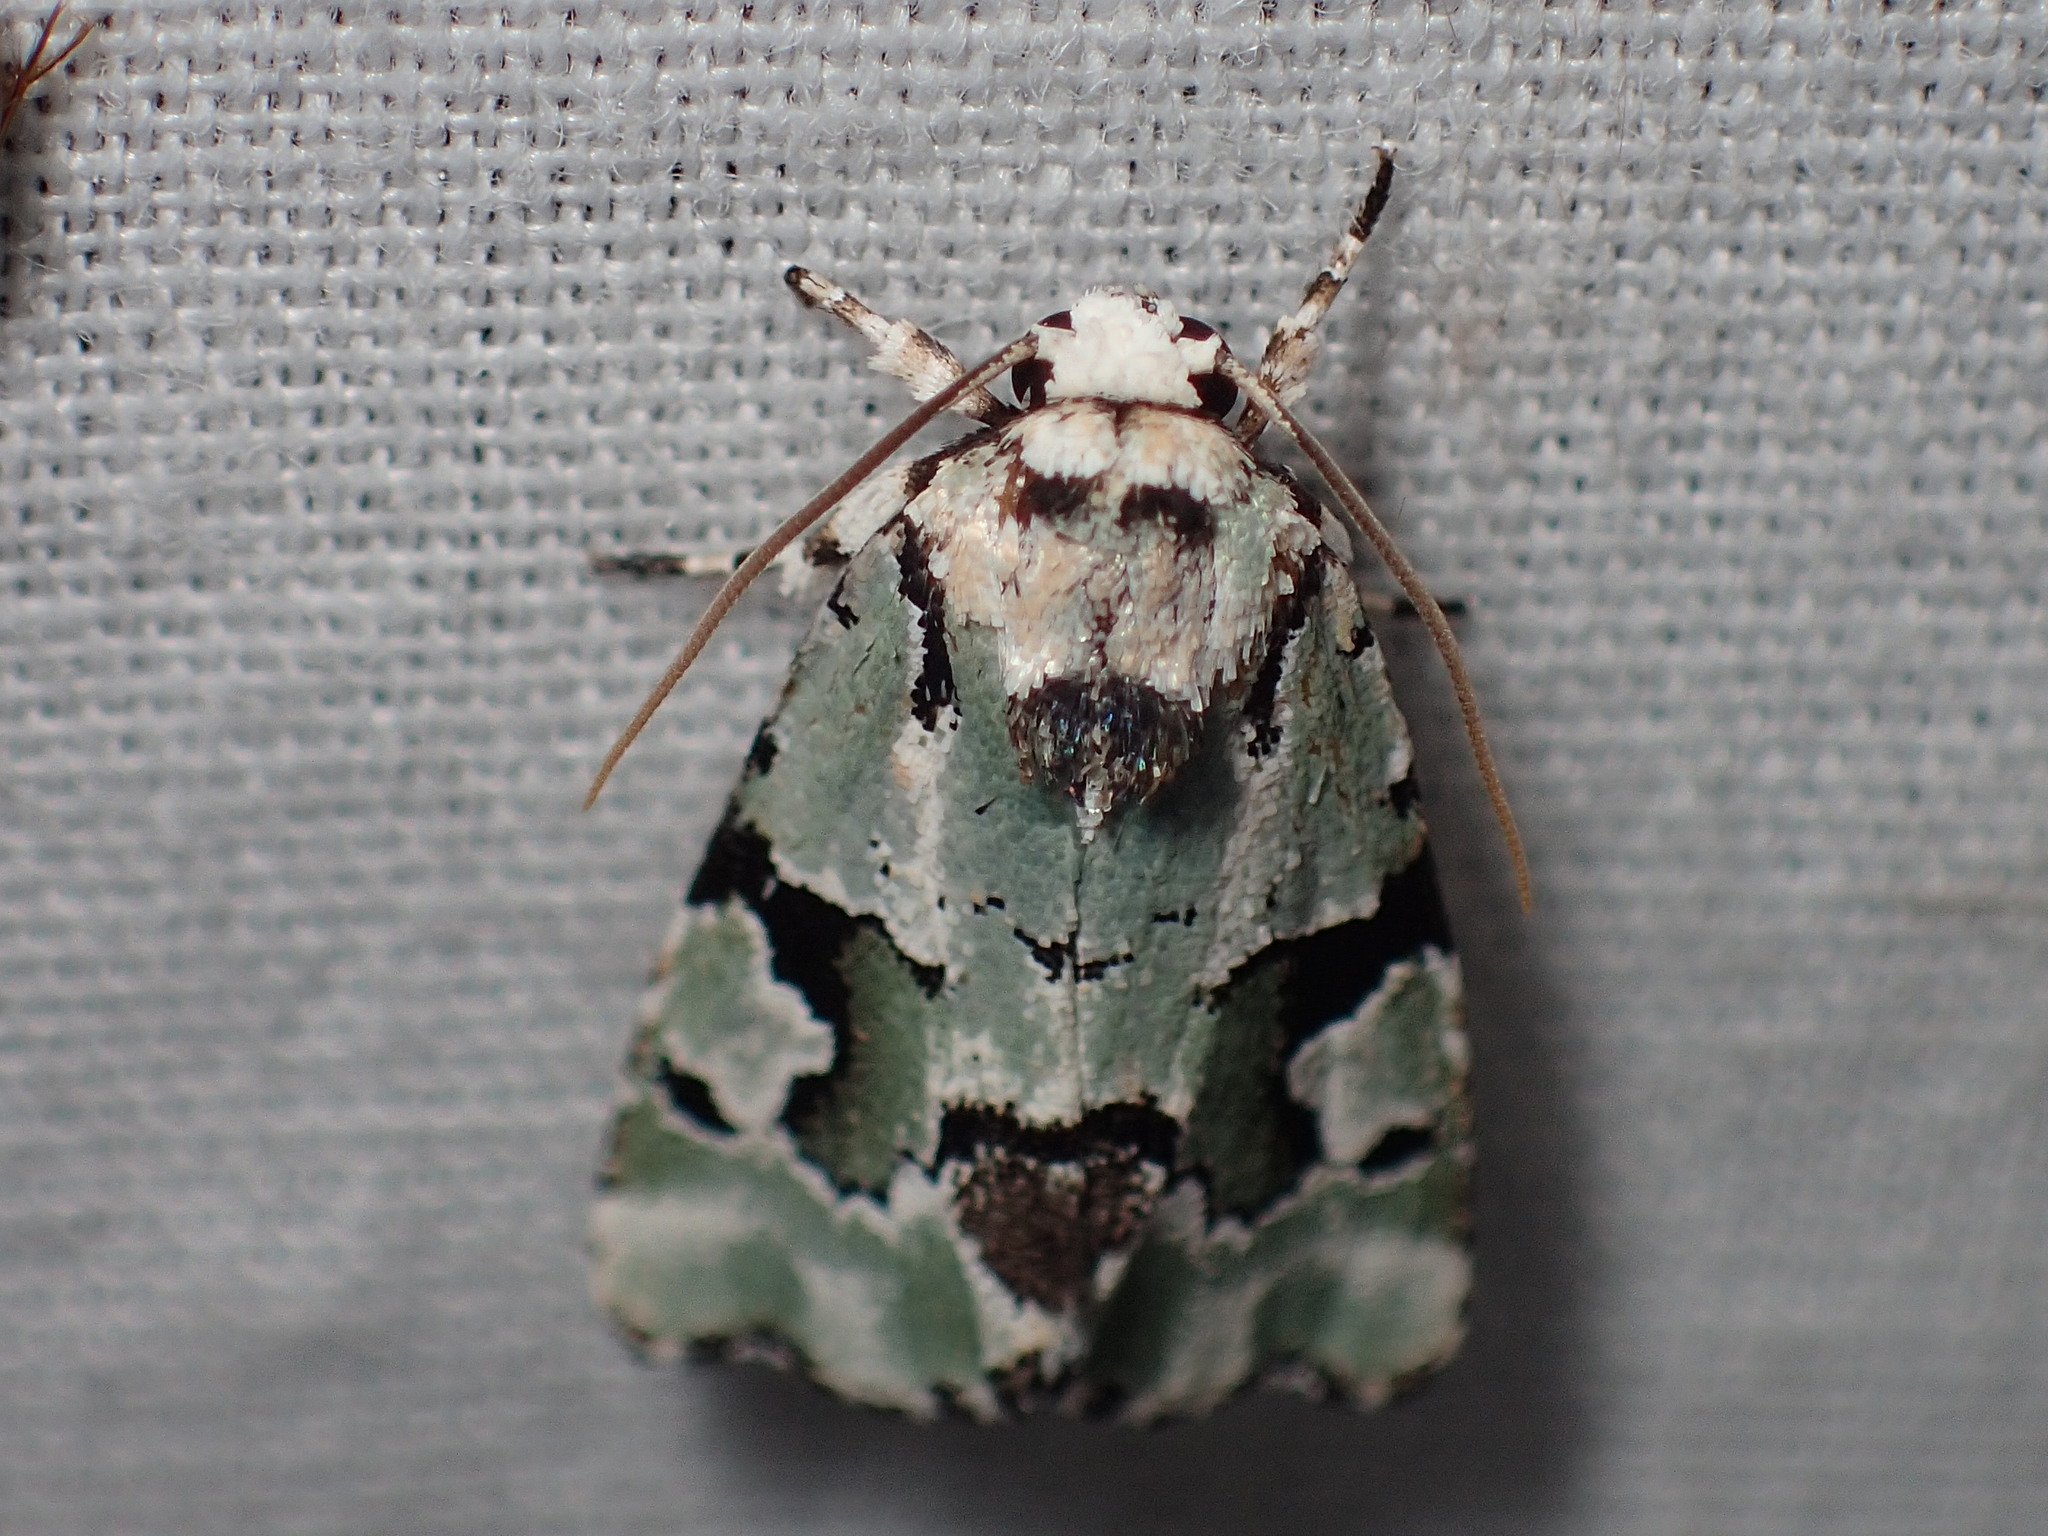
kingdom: Animalia
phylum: Arthropoda
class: Insecta
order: Lepidoptera
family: Noctuidae
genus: Emarginea
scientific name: Emarginea percara
